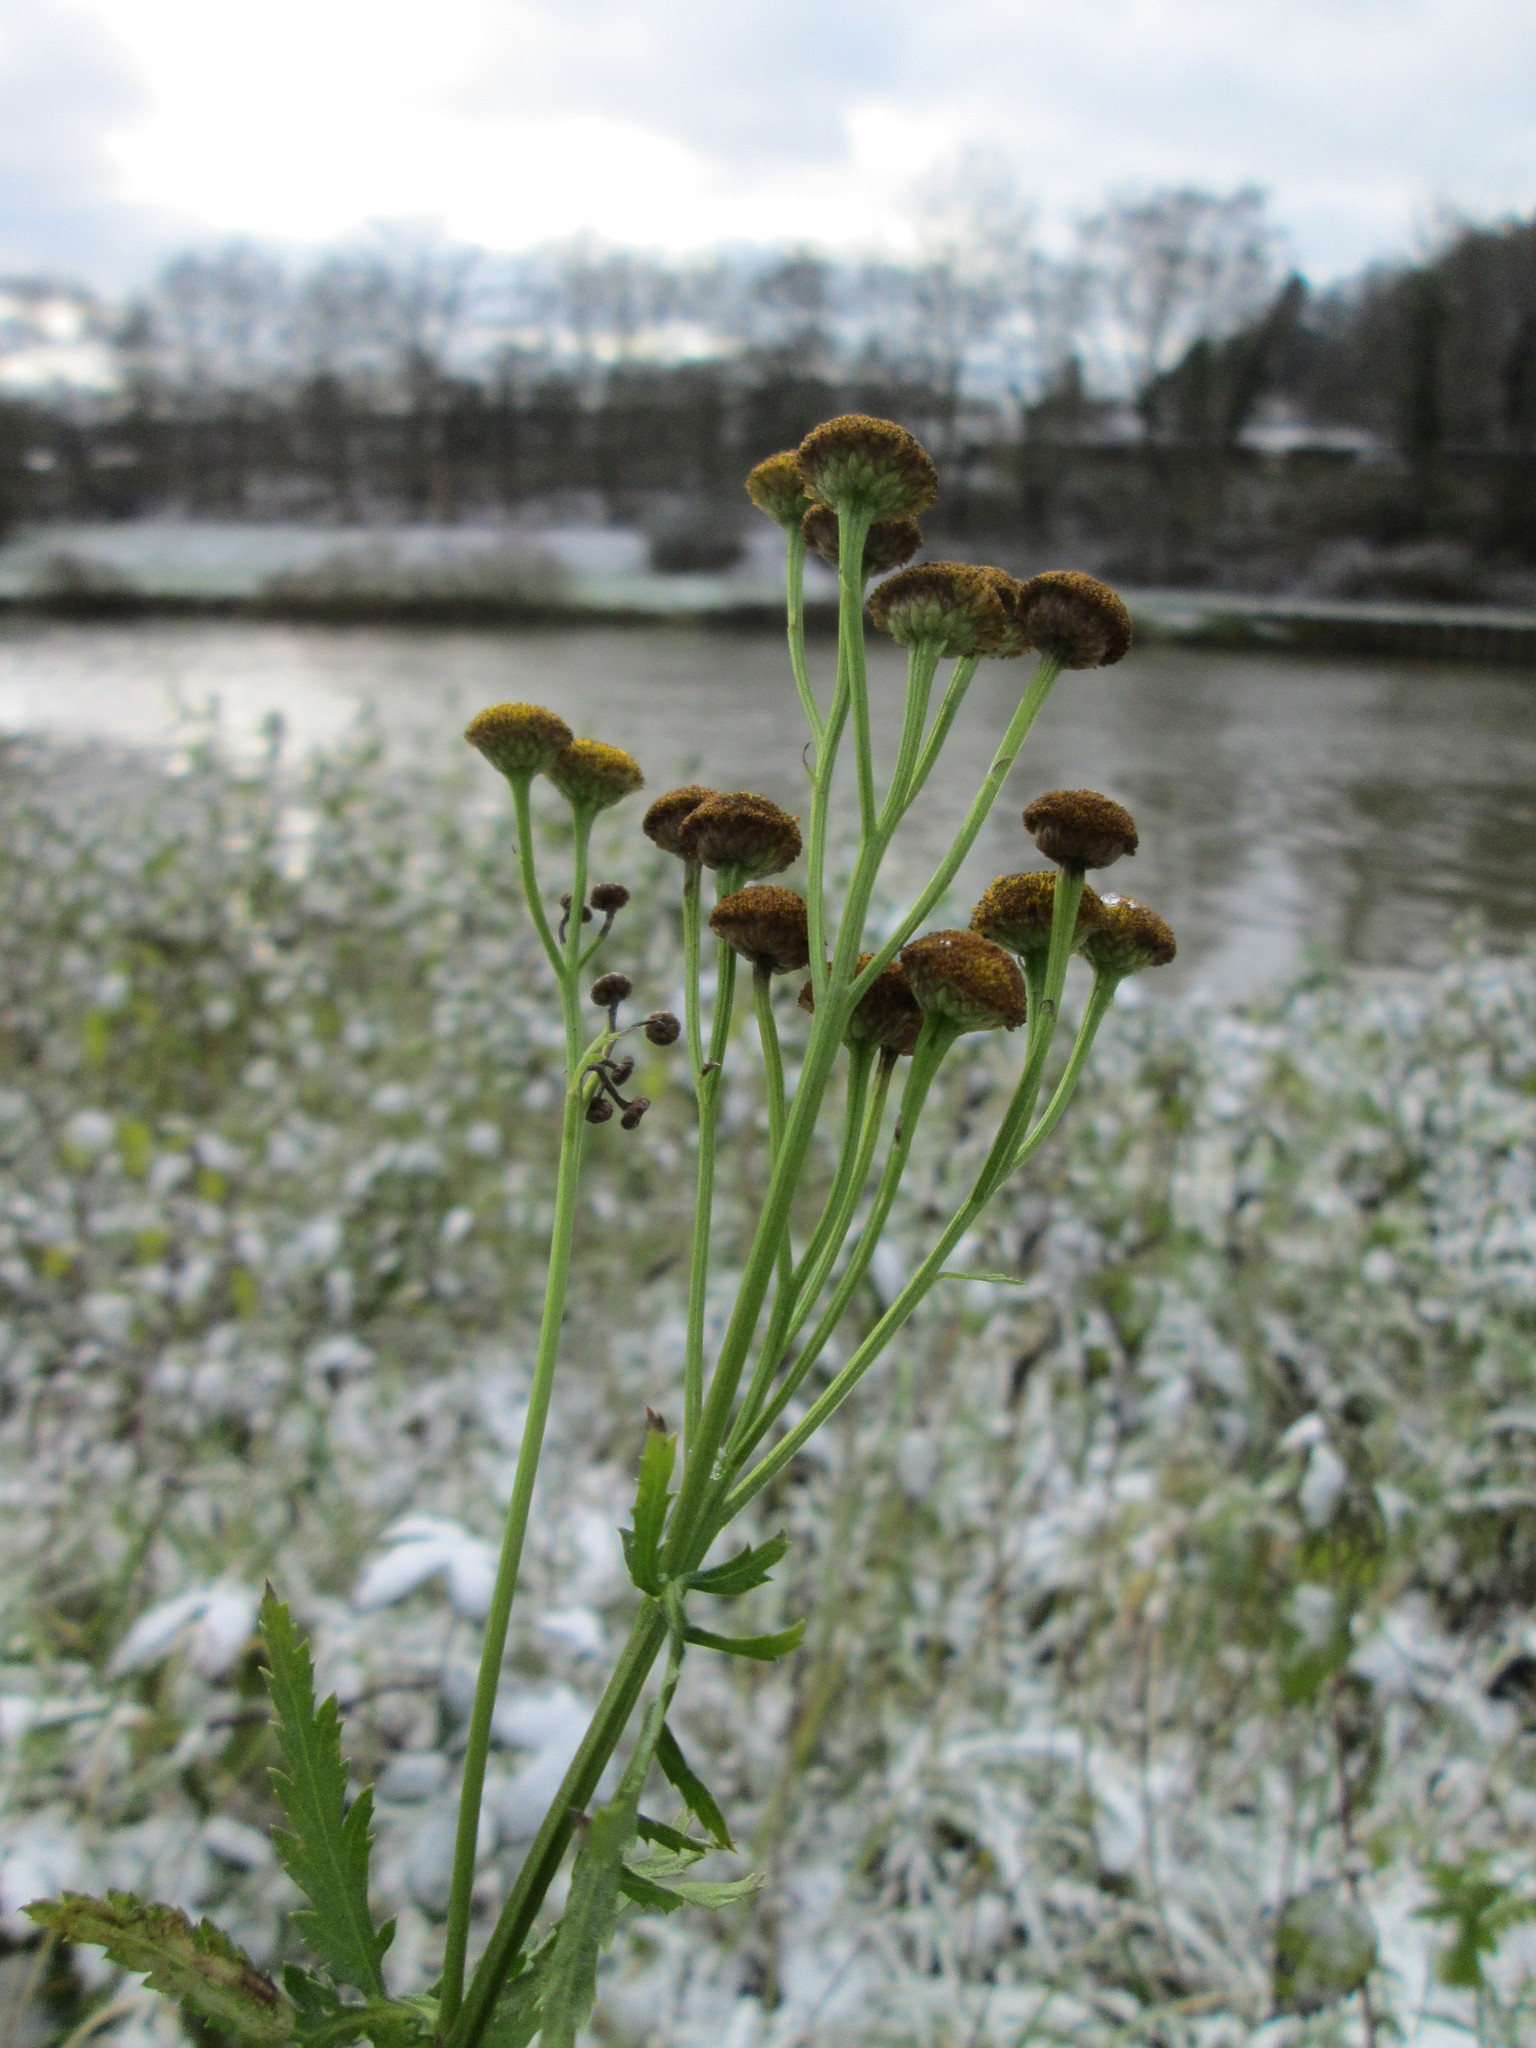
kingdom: Plantae
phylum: Tracheophyta
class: Magnoliopsida
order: Asterales
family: Asteraceae
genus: Tanacetum
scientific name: Tanacetum vulgare
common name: Common tansy
